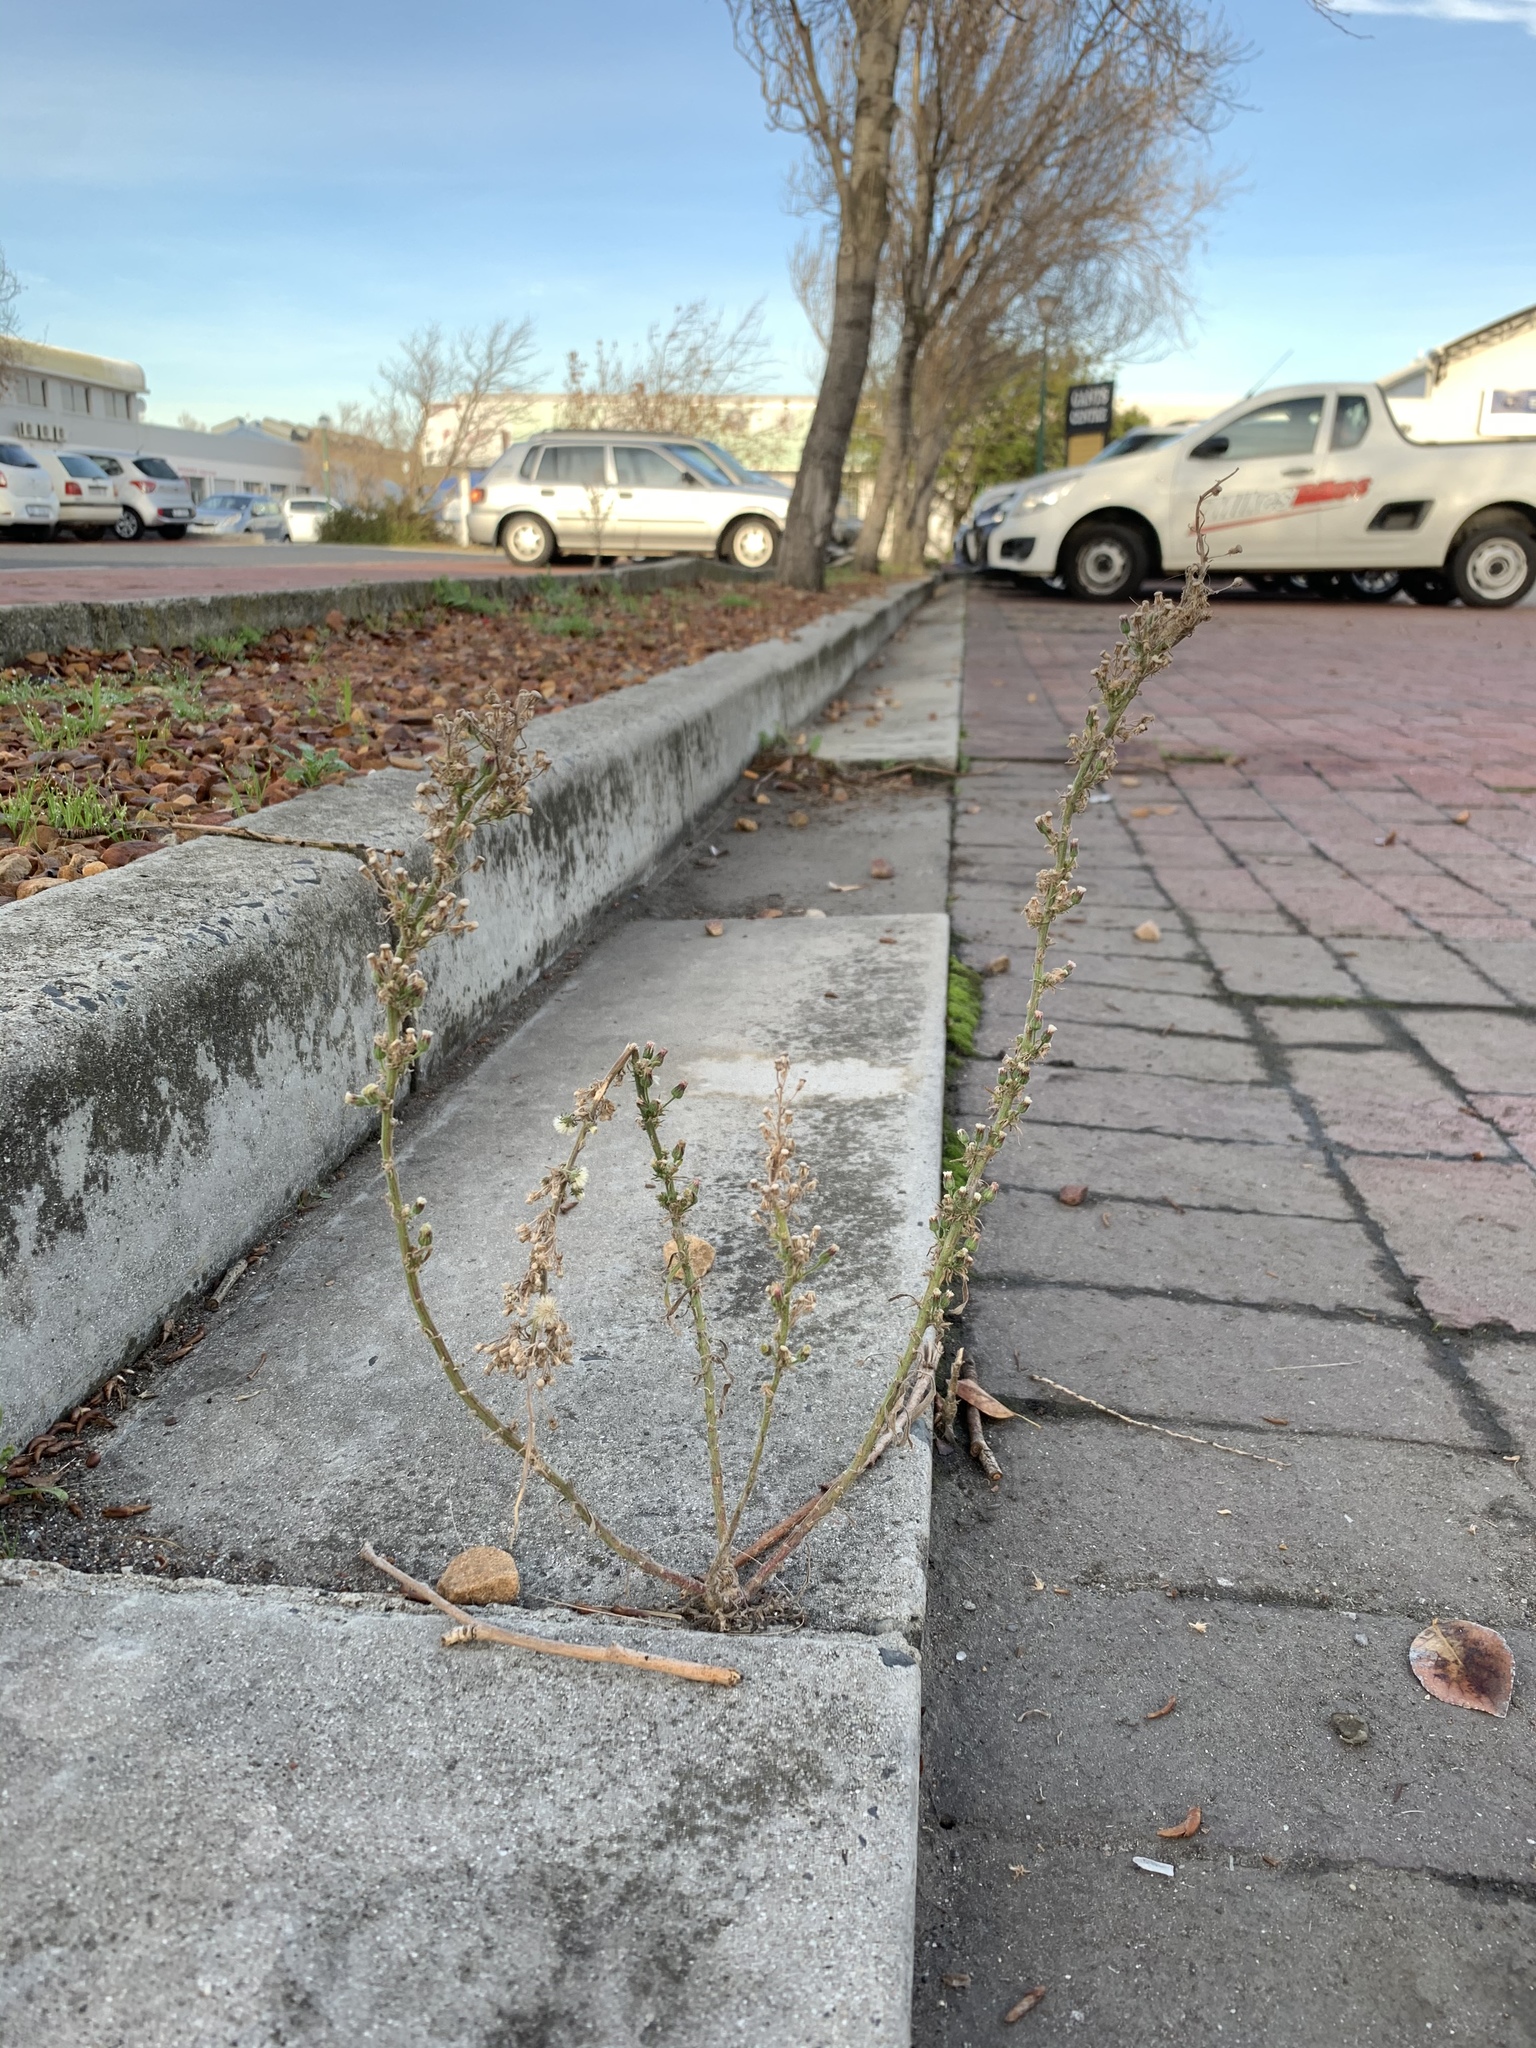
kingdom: Plantae
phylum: Tracheophyta
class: Magnoliopsida
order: Asterales
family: Asteraceae
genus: Erigeron
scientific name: Erigeron bonariensis
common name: Argentine fleabane
